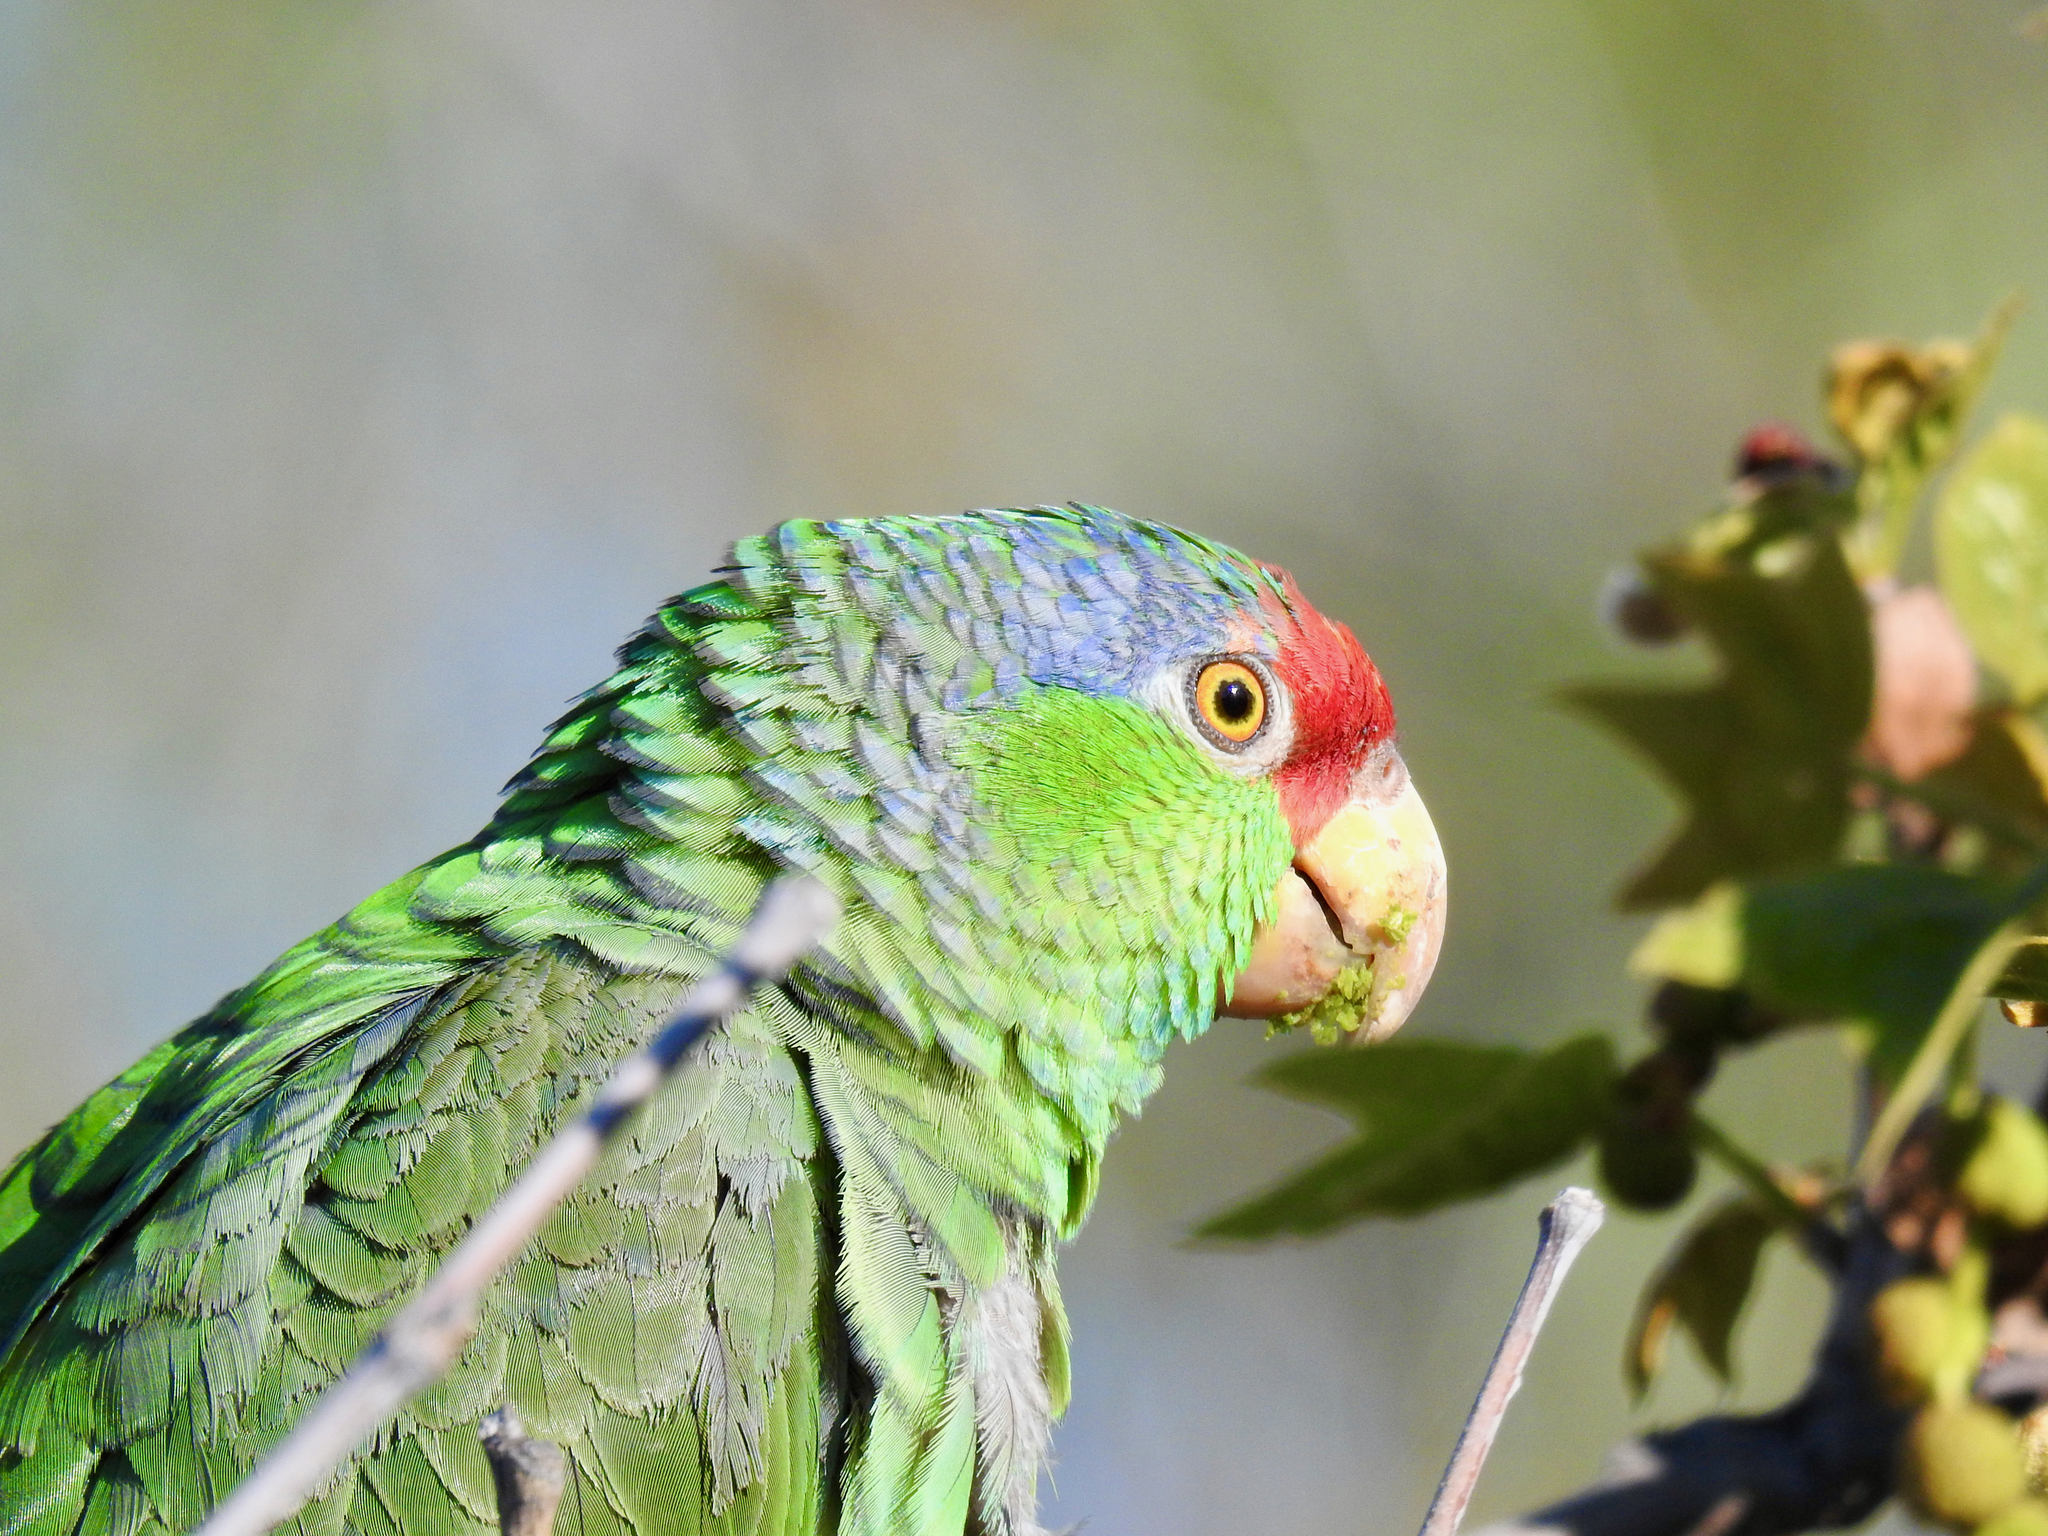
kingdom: Animalia
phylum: Chordata
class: Aves
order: Psittaciformes
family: Psittacidae
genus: Amazona
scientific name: Amazona viridigenalis
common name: Red-crowned amazon
